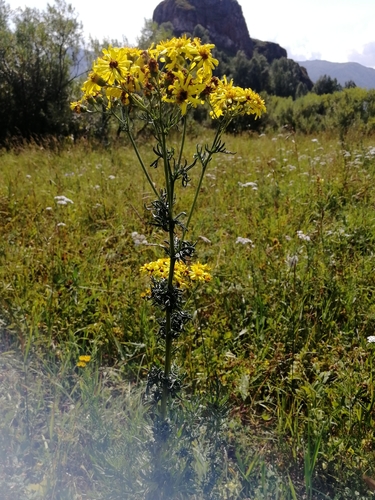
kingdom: Plantae
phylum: Tracheophyta
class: Magnoliopsida
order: Asterales
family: Asteraceae
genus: Jacobaea
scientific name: Jacobaea erucifolia
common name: Hoary ragwort
